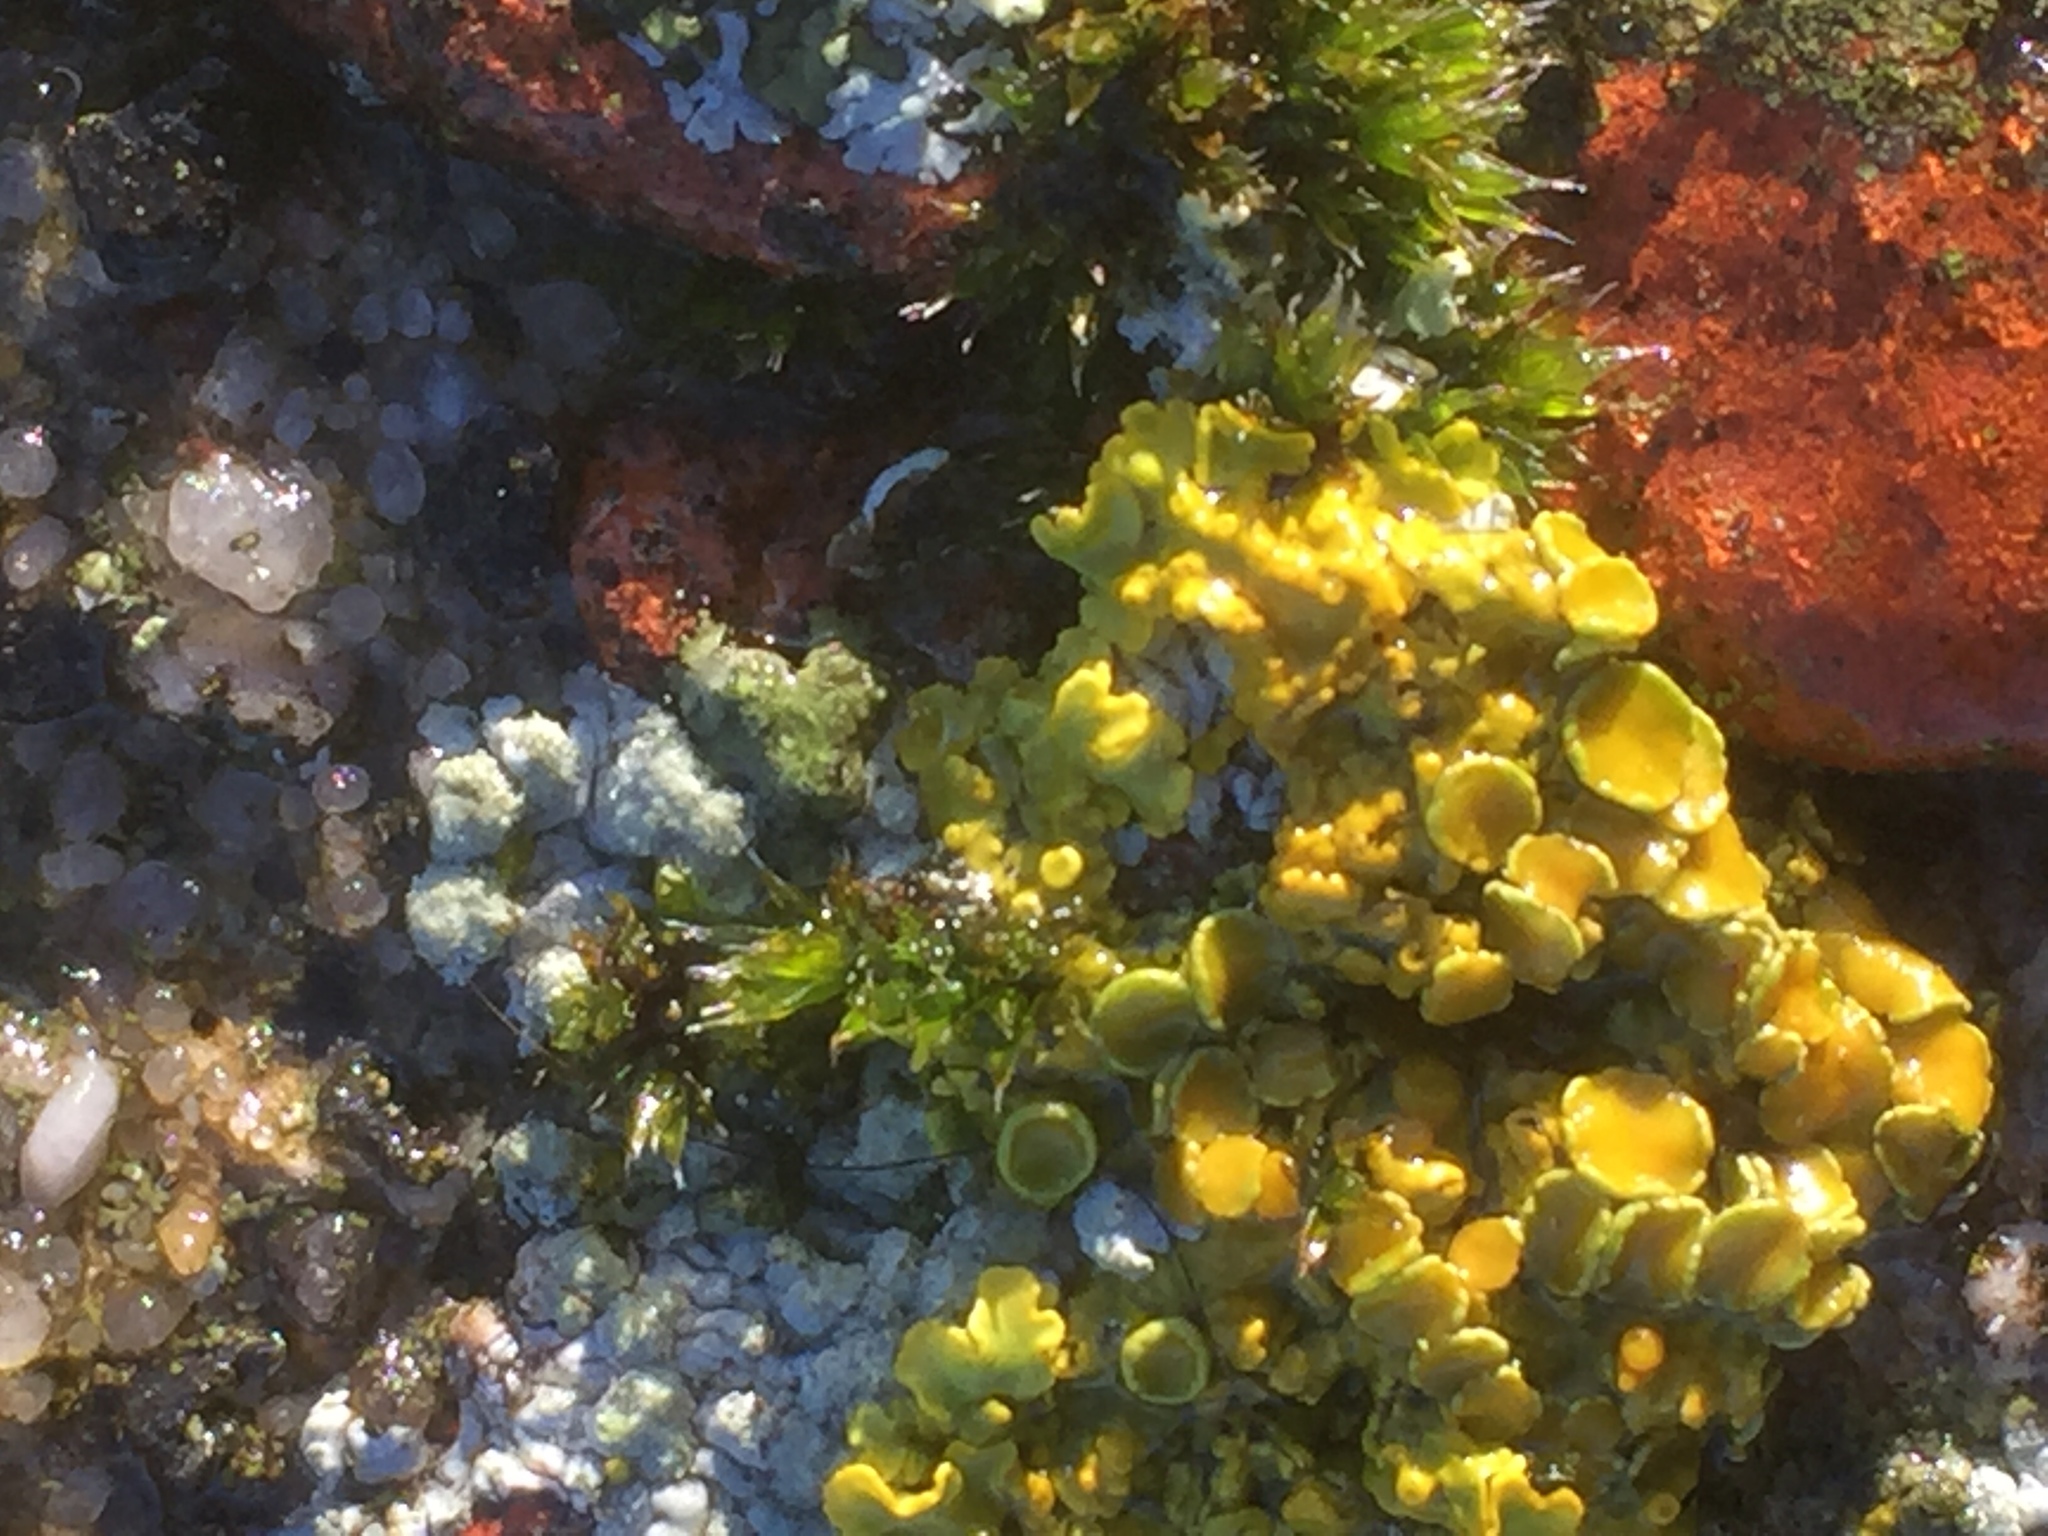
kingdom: Fungi
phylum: Ascomycota
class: Lecanoromycetes
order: Teloschistales
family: Teloschistaceae
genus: Xanthoria
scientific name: Xanthoria parietina
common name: Common orange lichen
